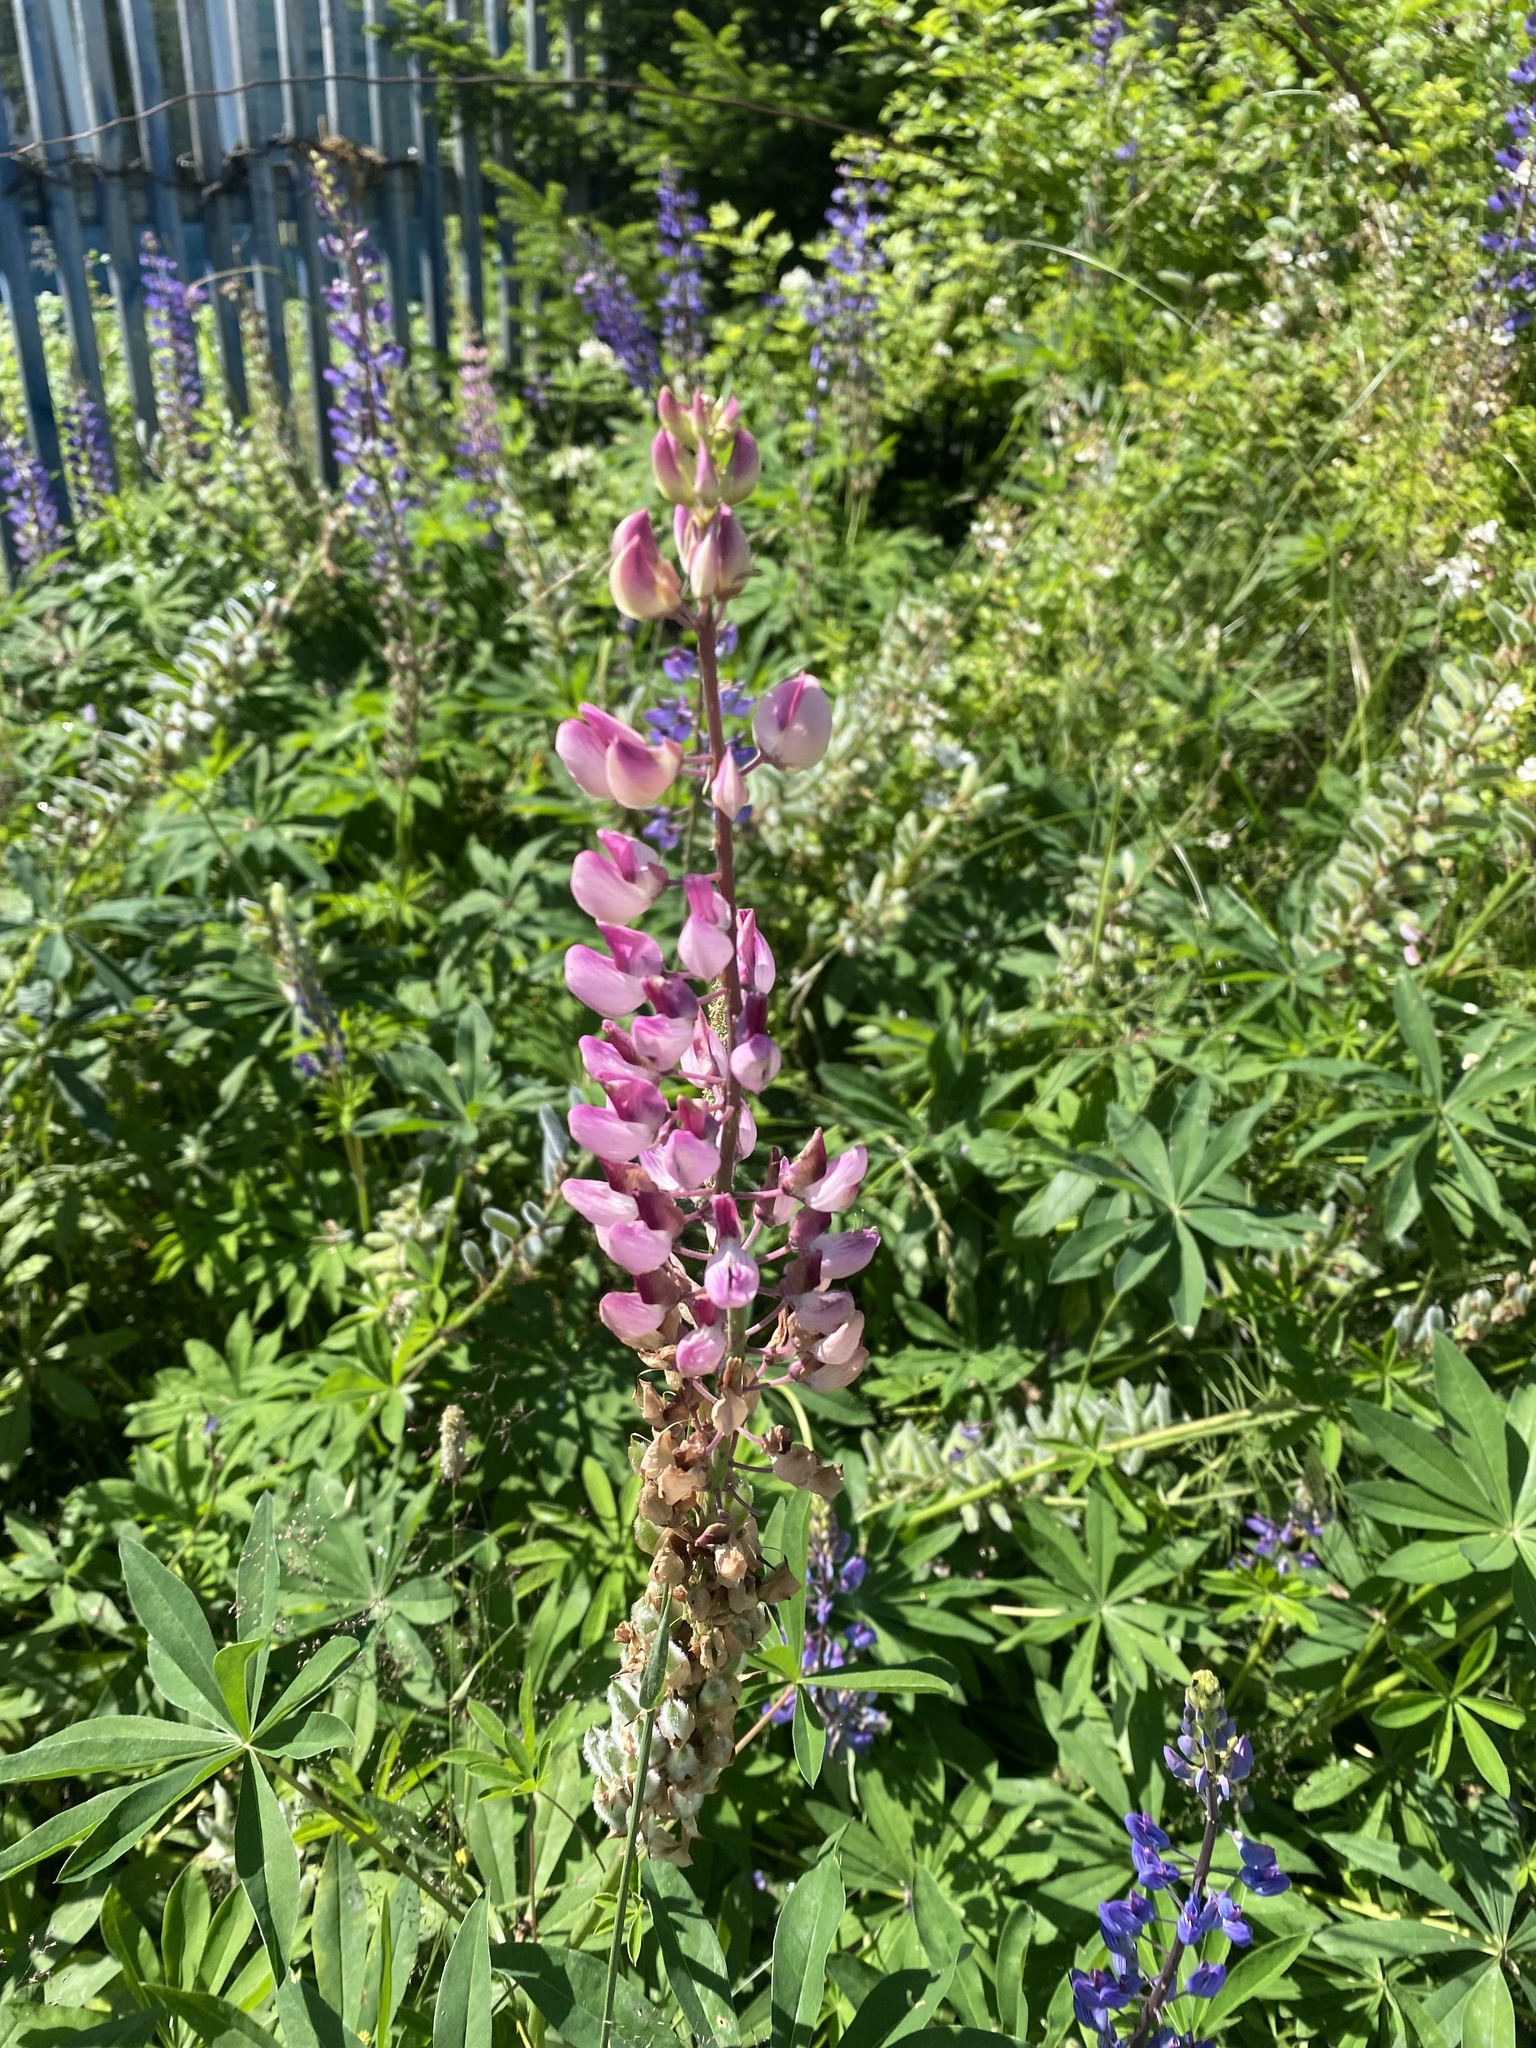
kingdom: Plantae
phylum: Tracheophyta
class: Magnoliopsida
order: Fabales
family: Fabaceae
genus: Lupinus
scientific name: Lupinus polyphyllus
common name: Garden lupin
